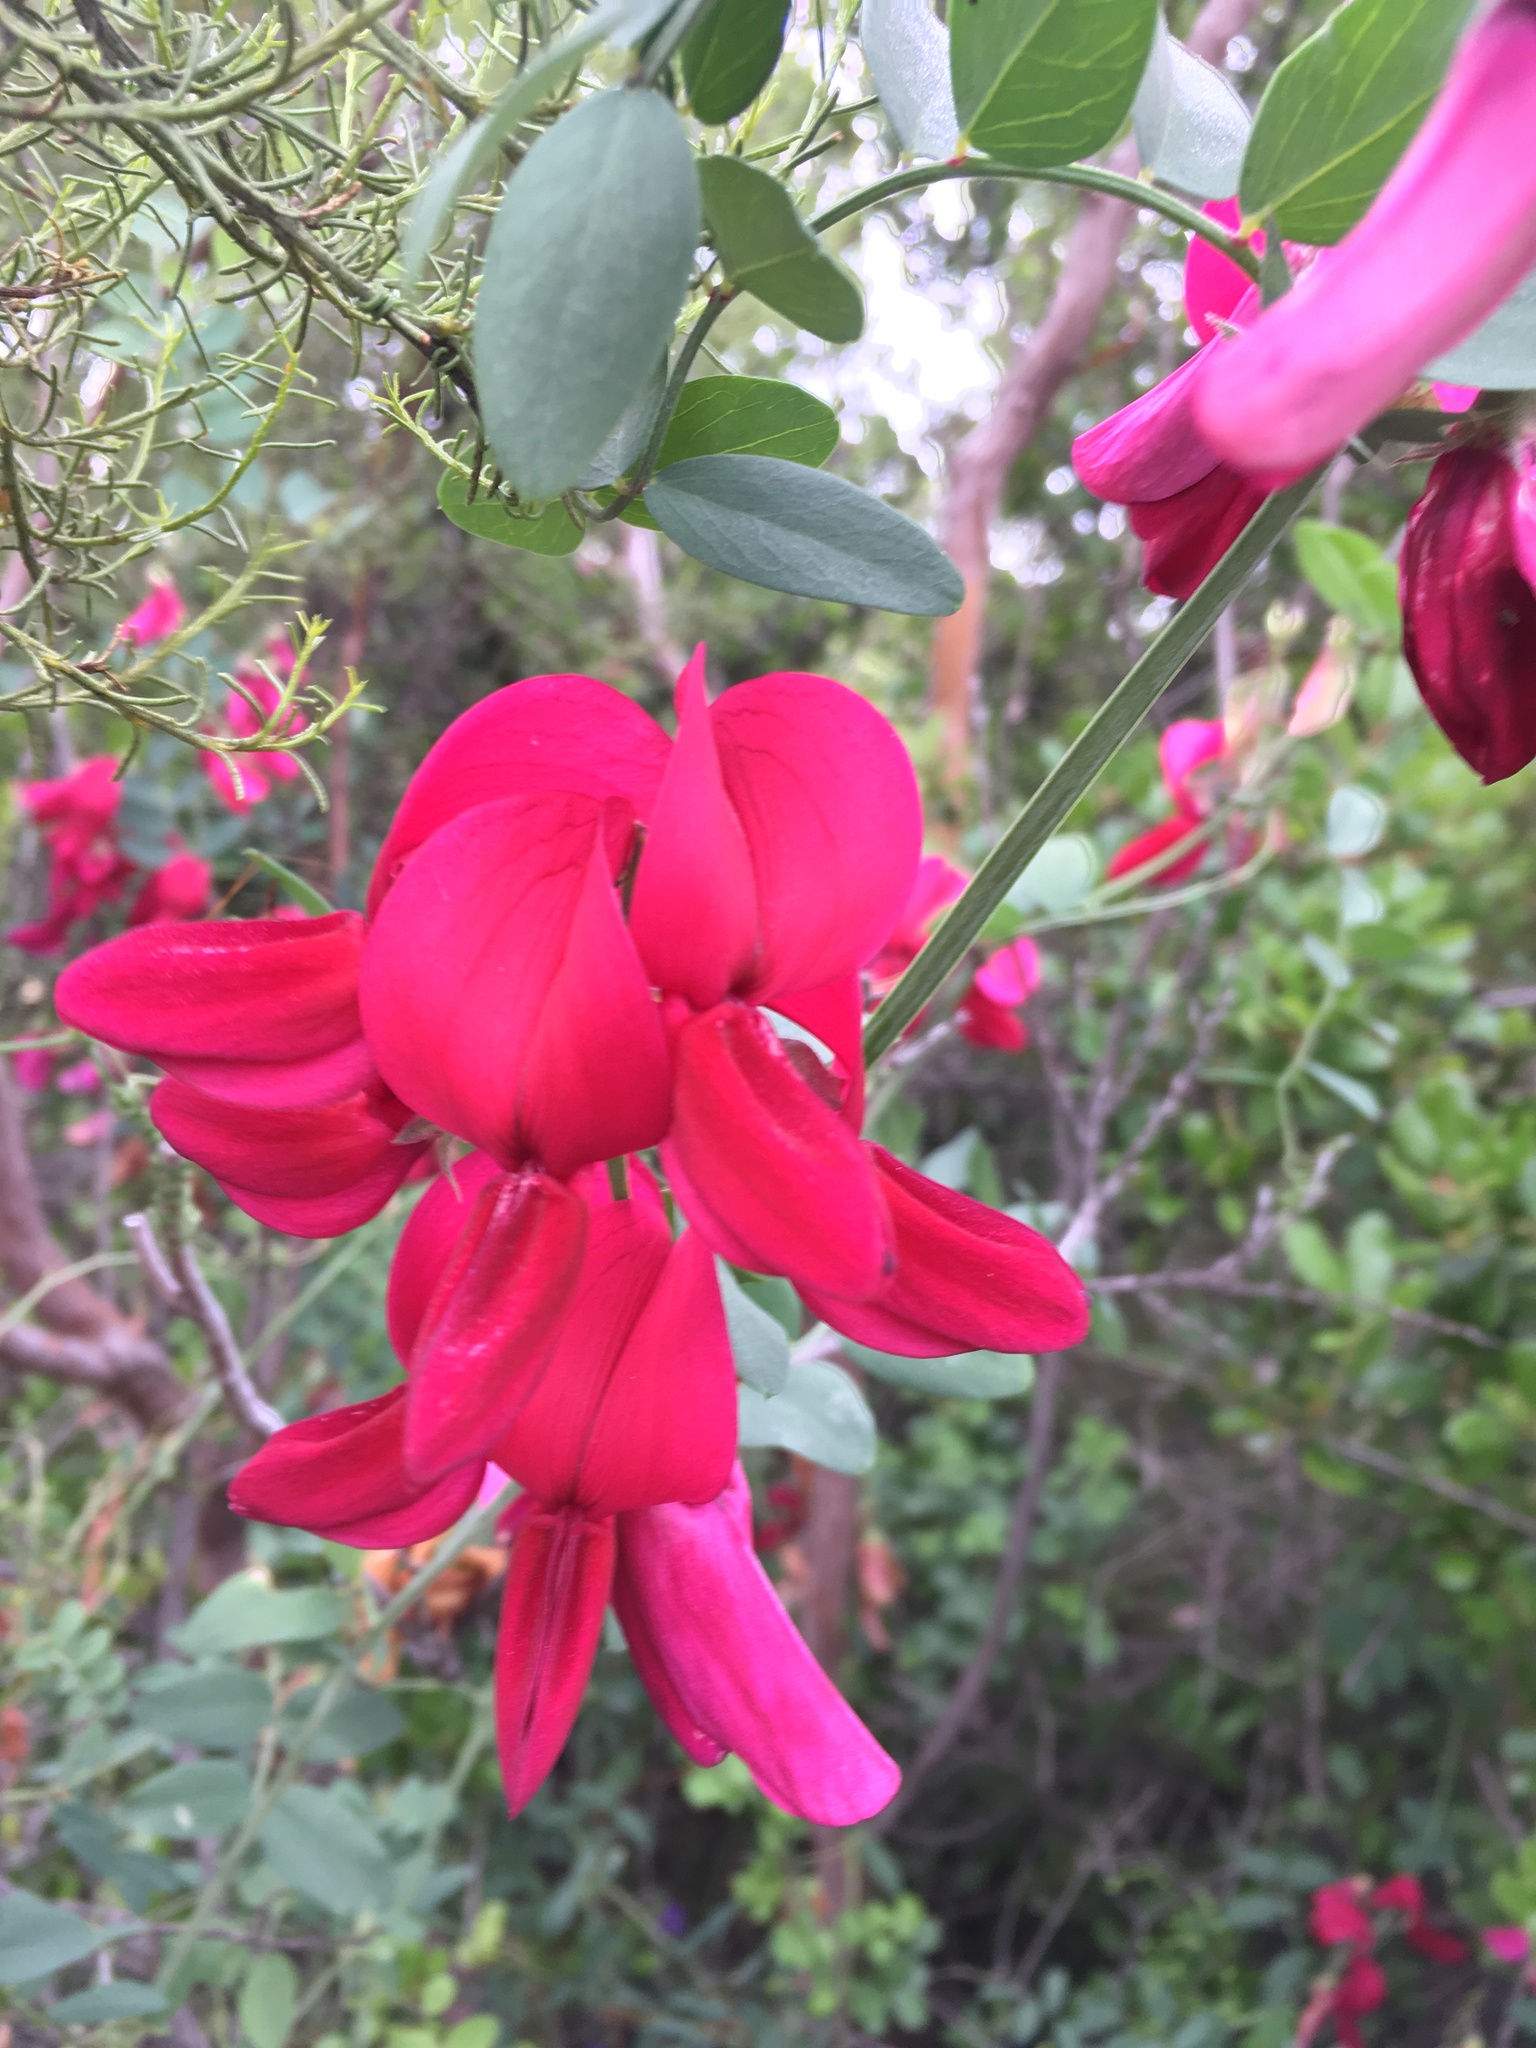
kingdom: Plantae
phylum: Tracheophyta
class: Magnoliopsida
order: Fabales
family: Fabaceae
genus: Lathyrus
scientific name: Lathyrus splendens
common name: Campo-pea
